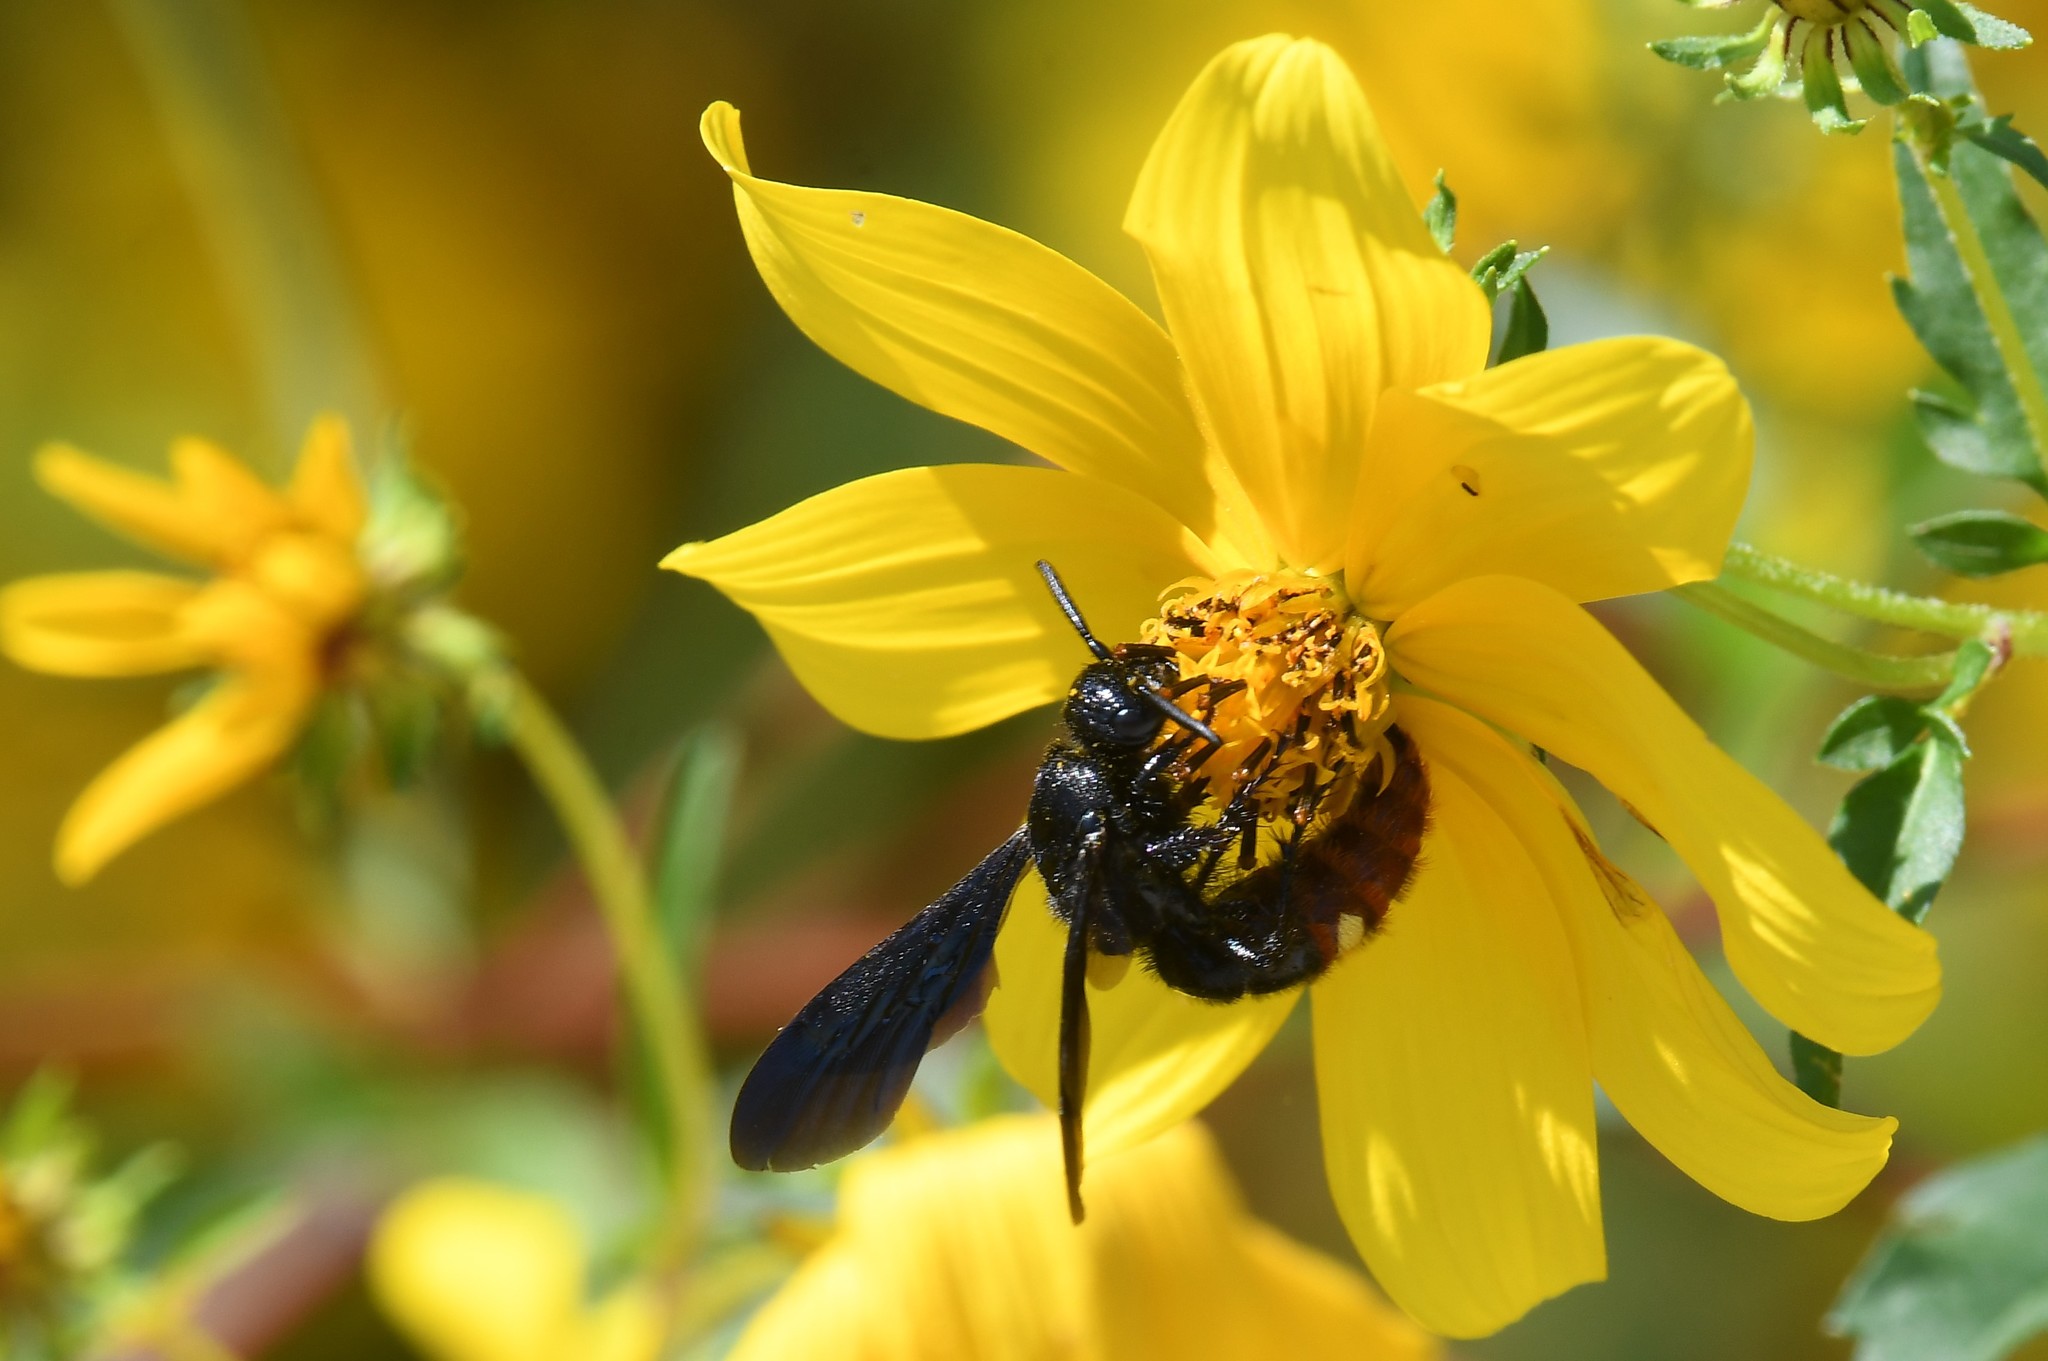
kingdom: Animalia
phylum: Arthropoda
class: Insecta
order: Hymenoptera
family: Scoliidae
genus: Scolia
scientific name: Scolia dubia
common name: Blue-winged scoliid wasp
